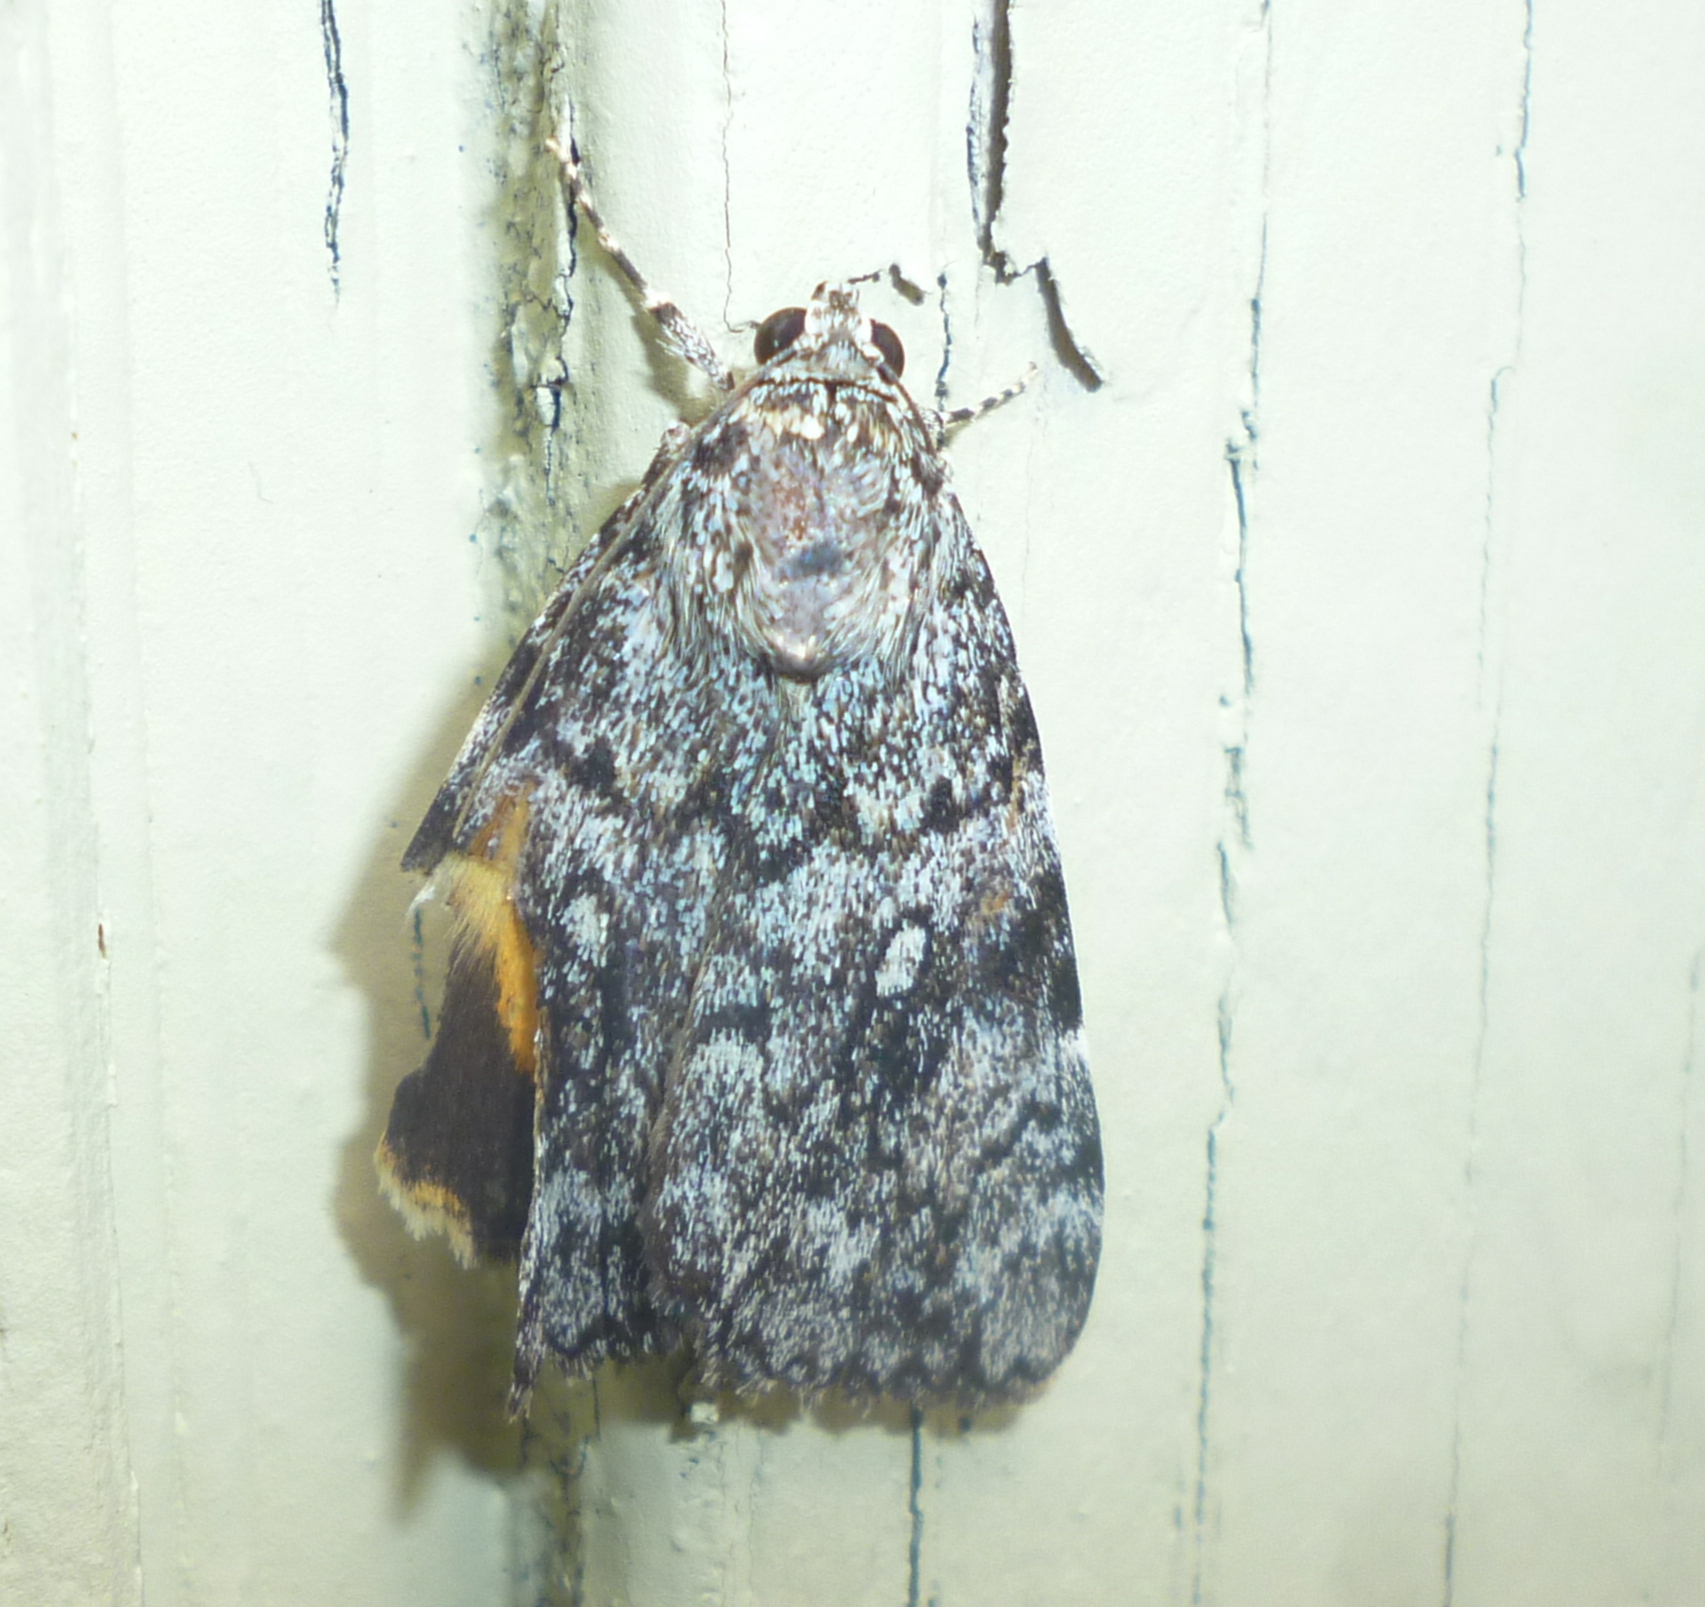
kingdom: Animalia
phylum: Arthropoda
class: Insecta
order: Lepidoptera
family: Erebidae
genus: Catocala
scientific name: Catocala lineella
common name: Little lined underwing
